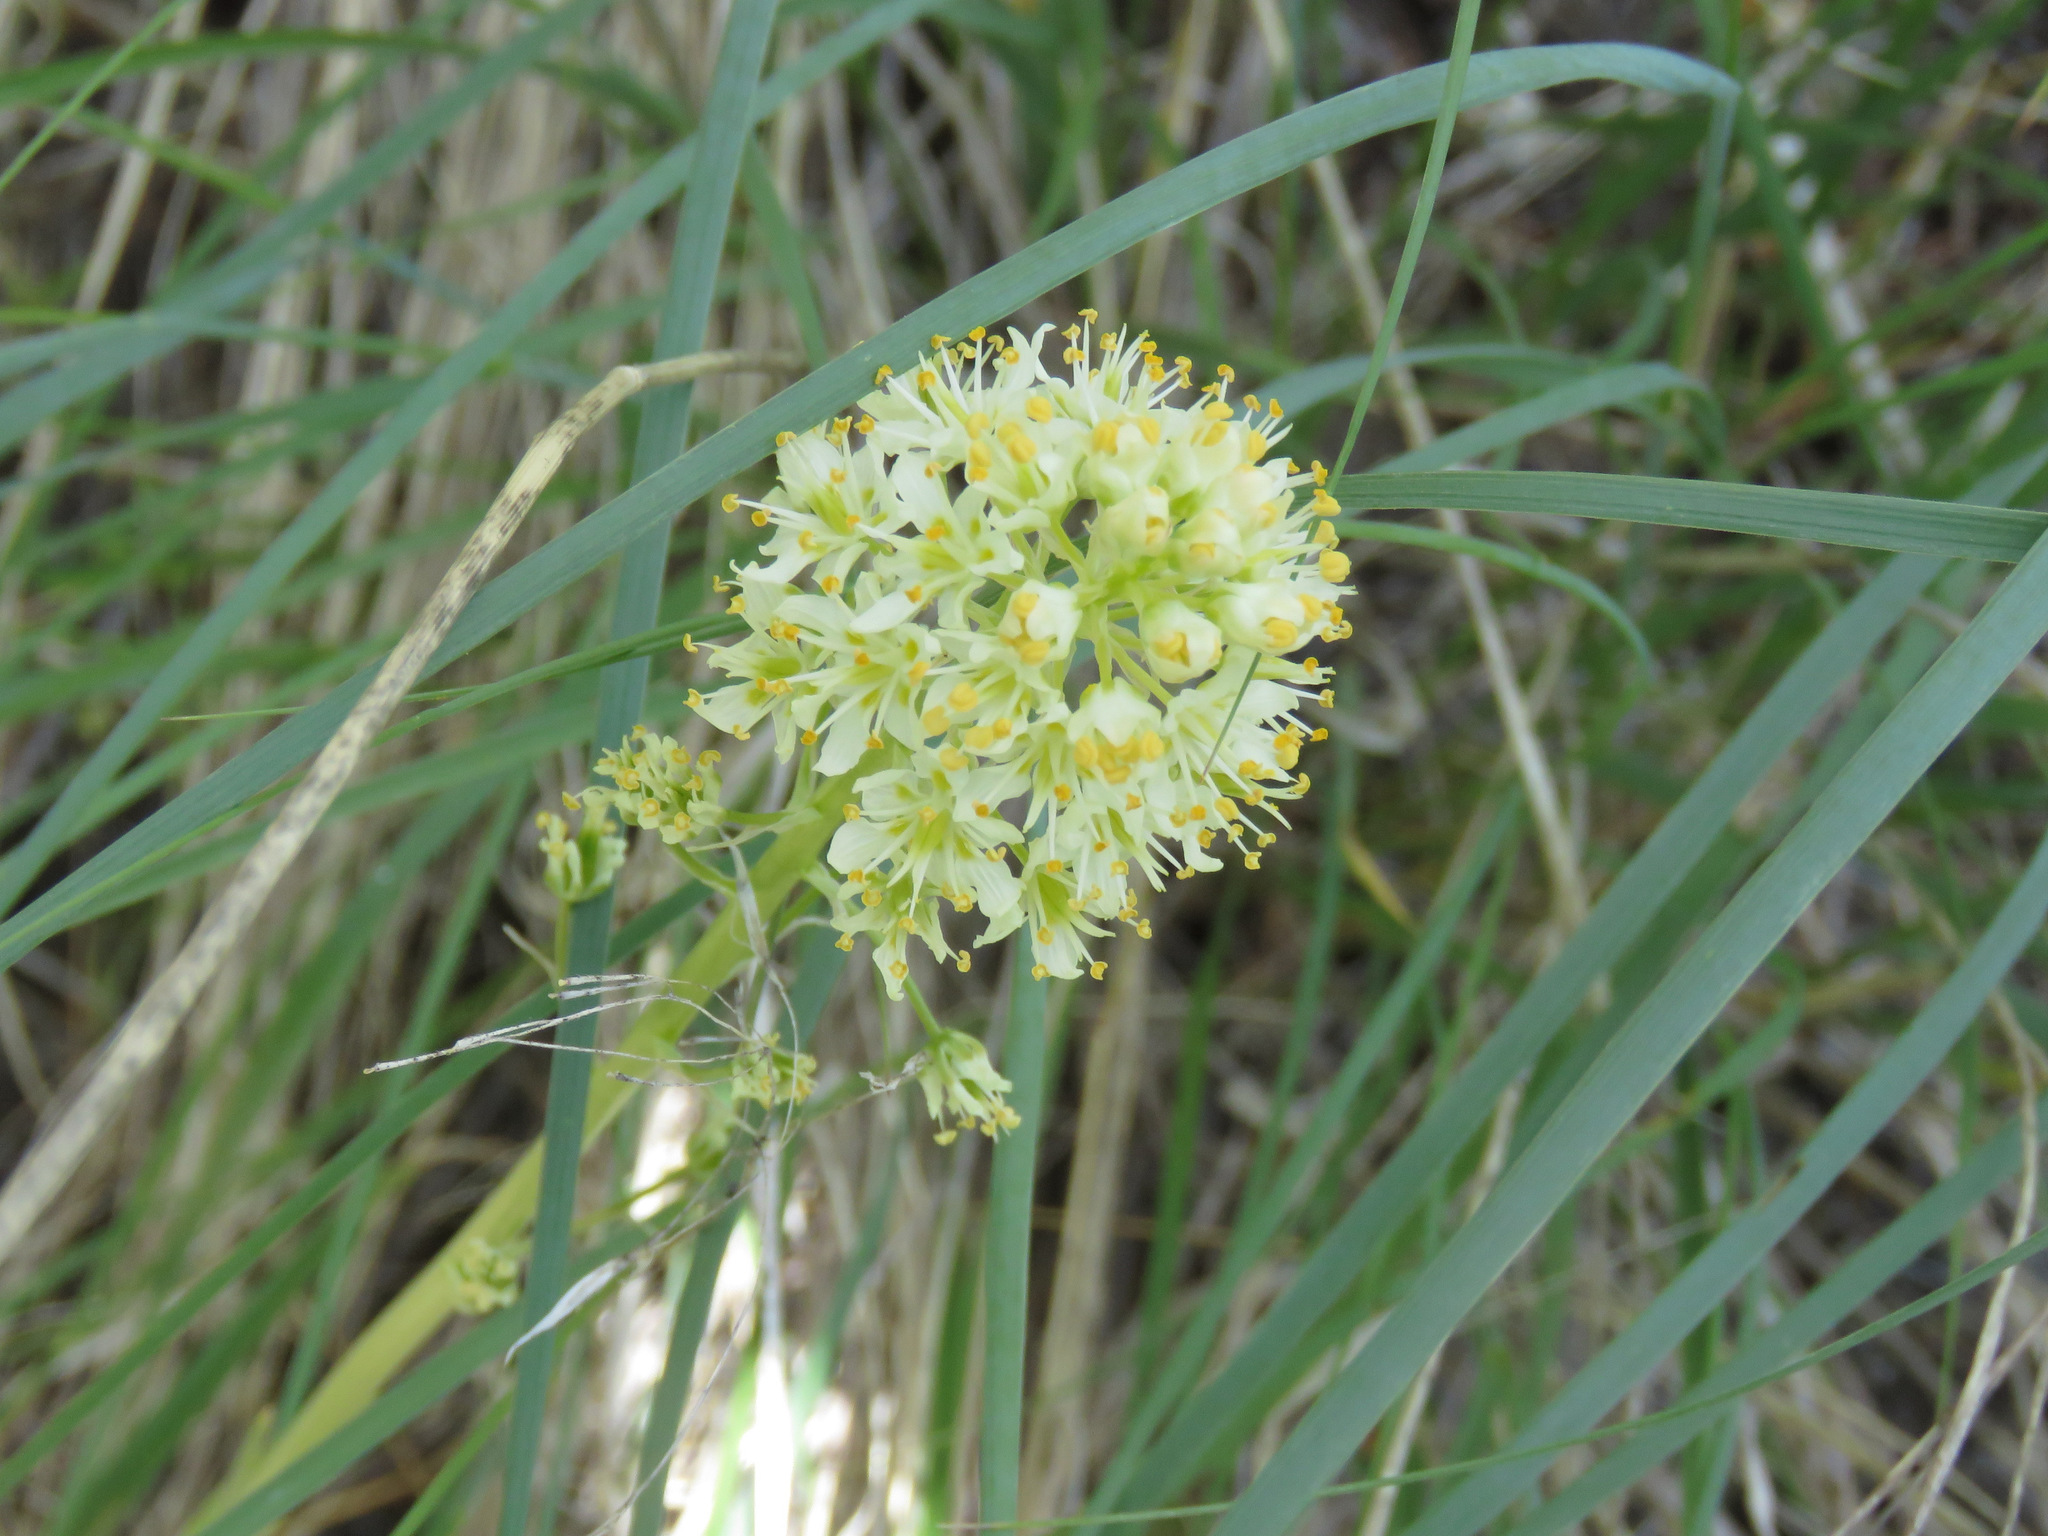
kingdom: Plantae
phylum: Tracheophyta
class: Liliopsida
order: Liliales
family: Melanthiaceae
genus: Toxicoscordion
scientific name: Toxicoscordion venenosum
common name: Meadow death camas
